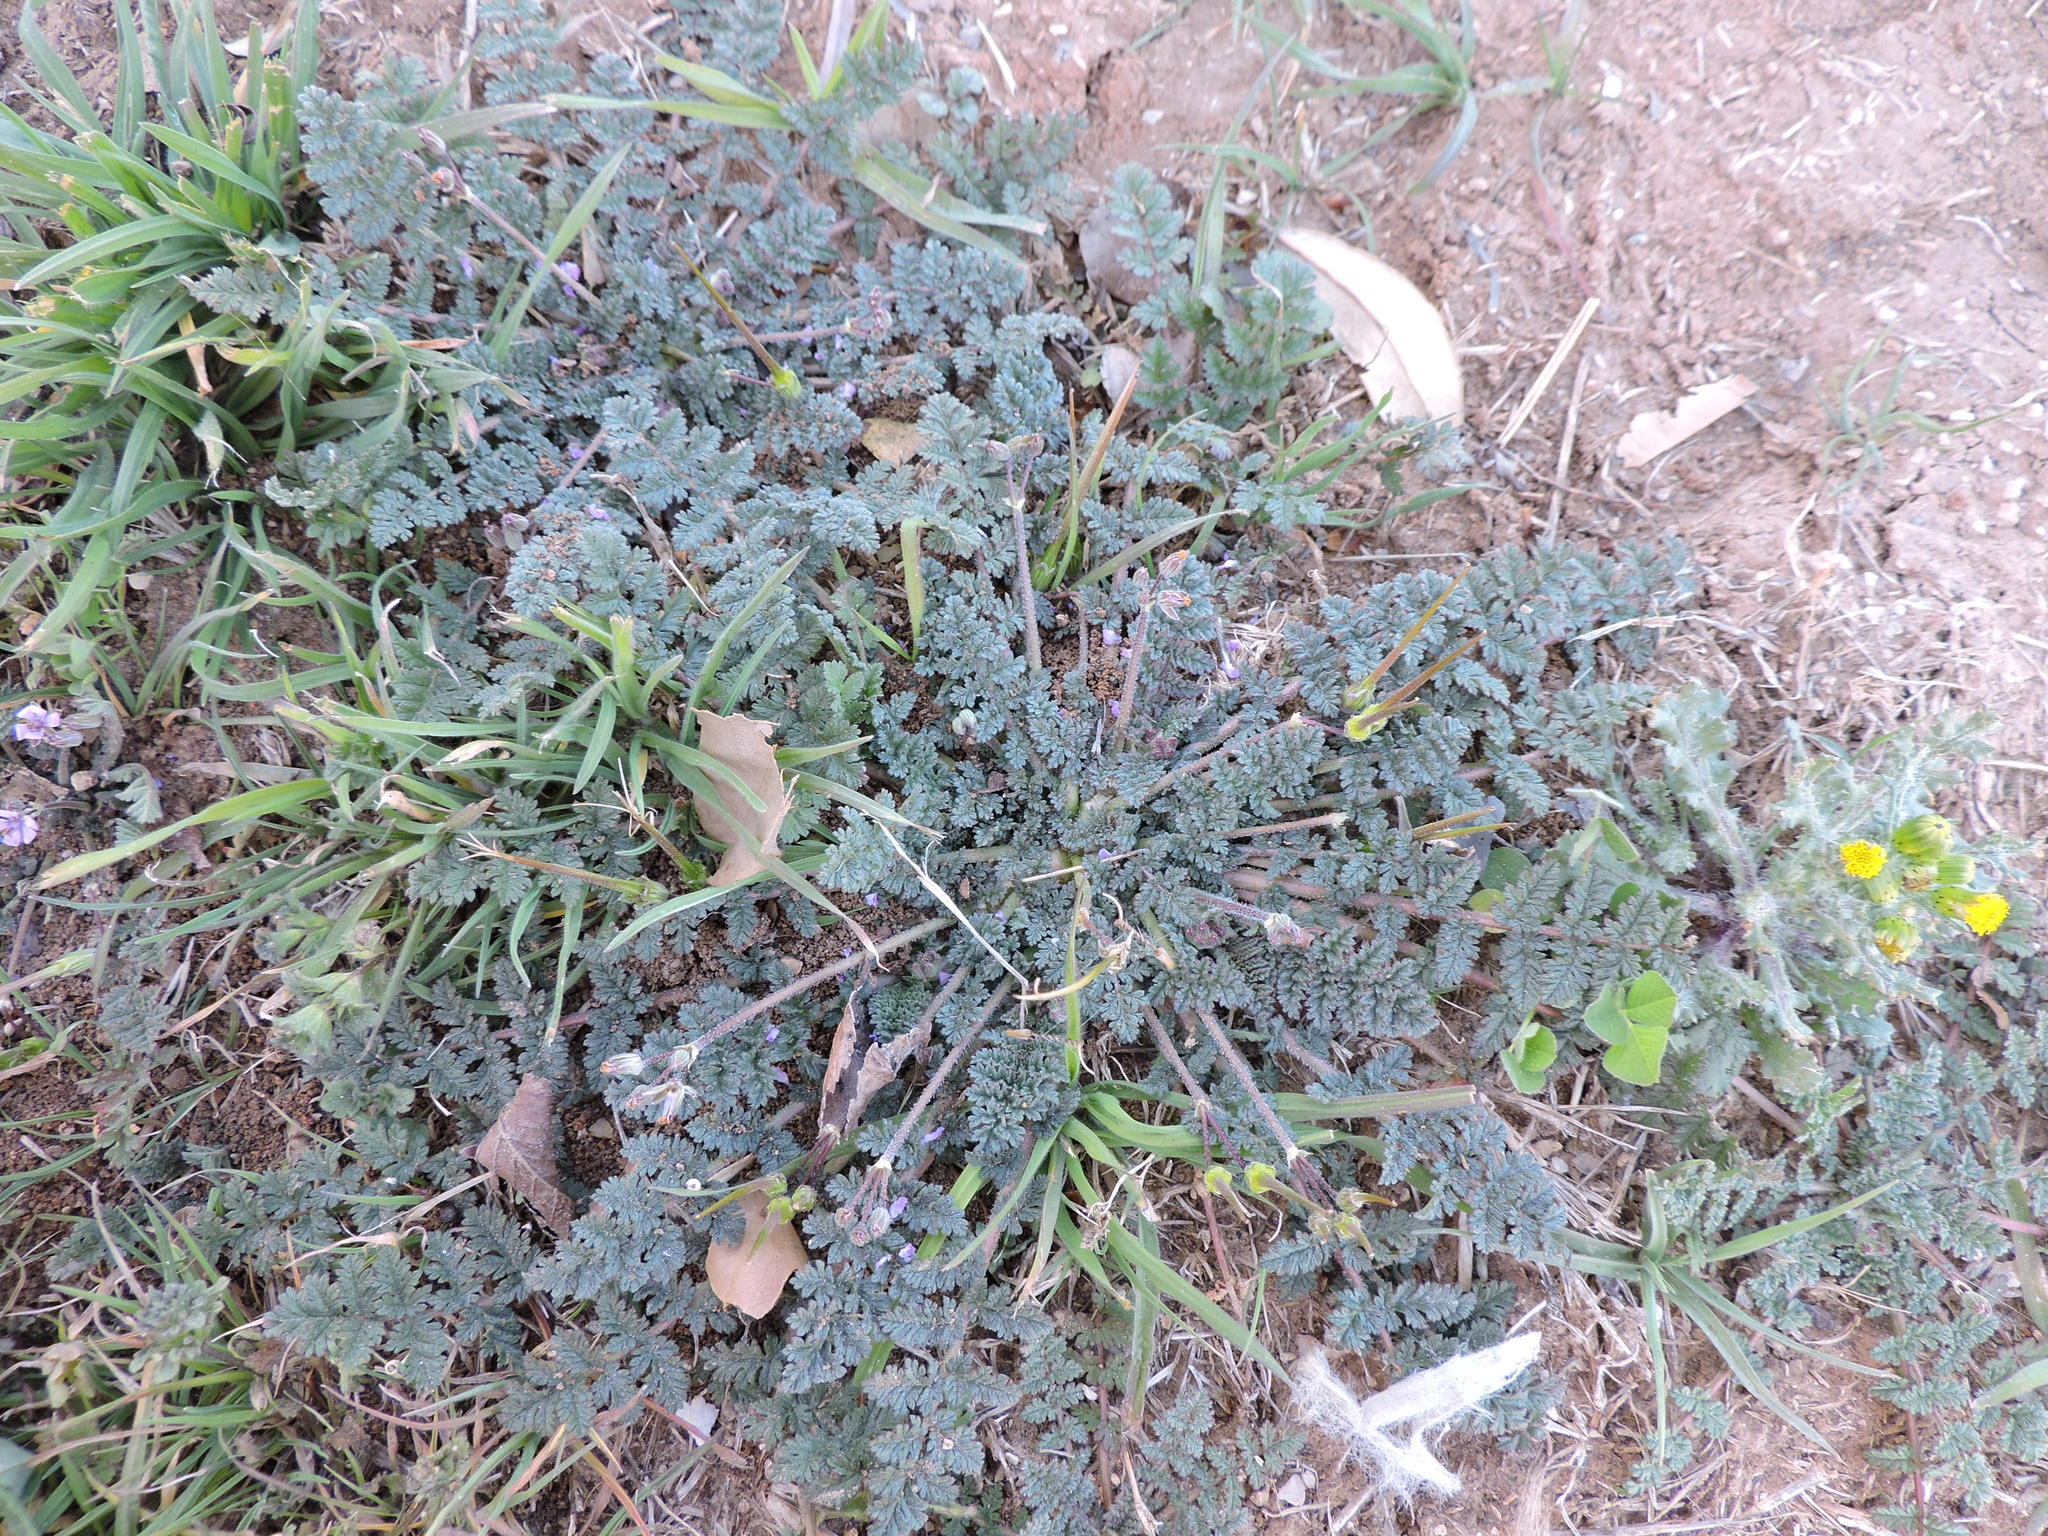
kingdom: Plantae
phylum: Tracheophyta
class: Magnoliopsida
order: Geraniales
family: Geraniaceae
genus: Erodium
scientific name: Erodium cicutarium
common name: Common stork's-bill
